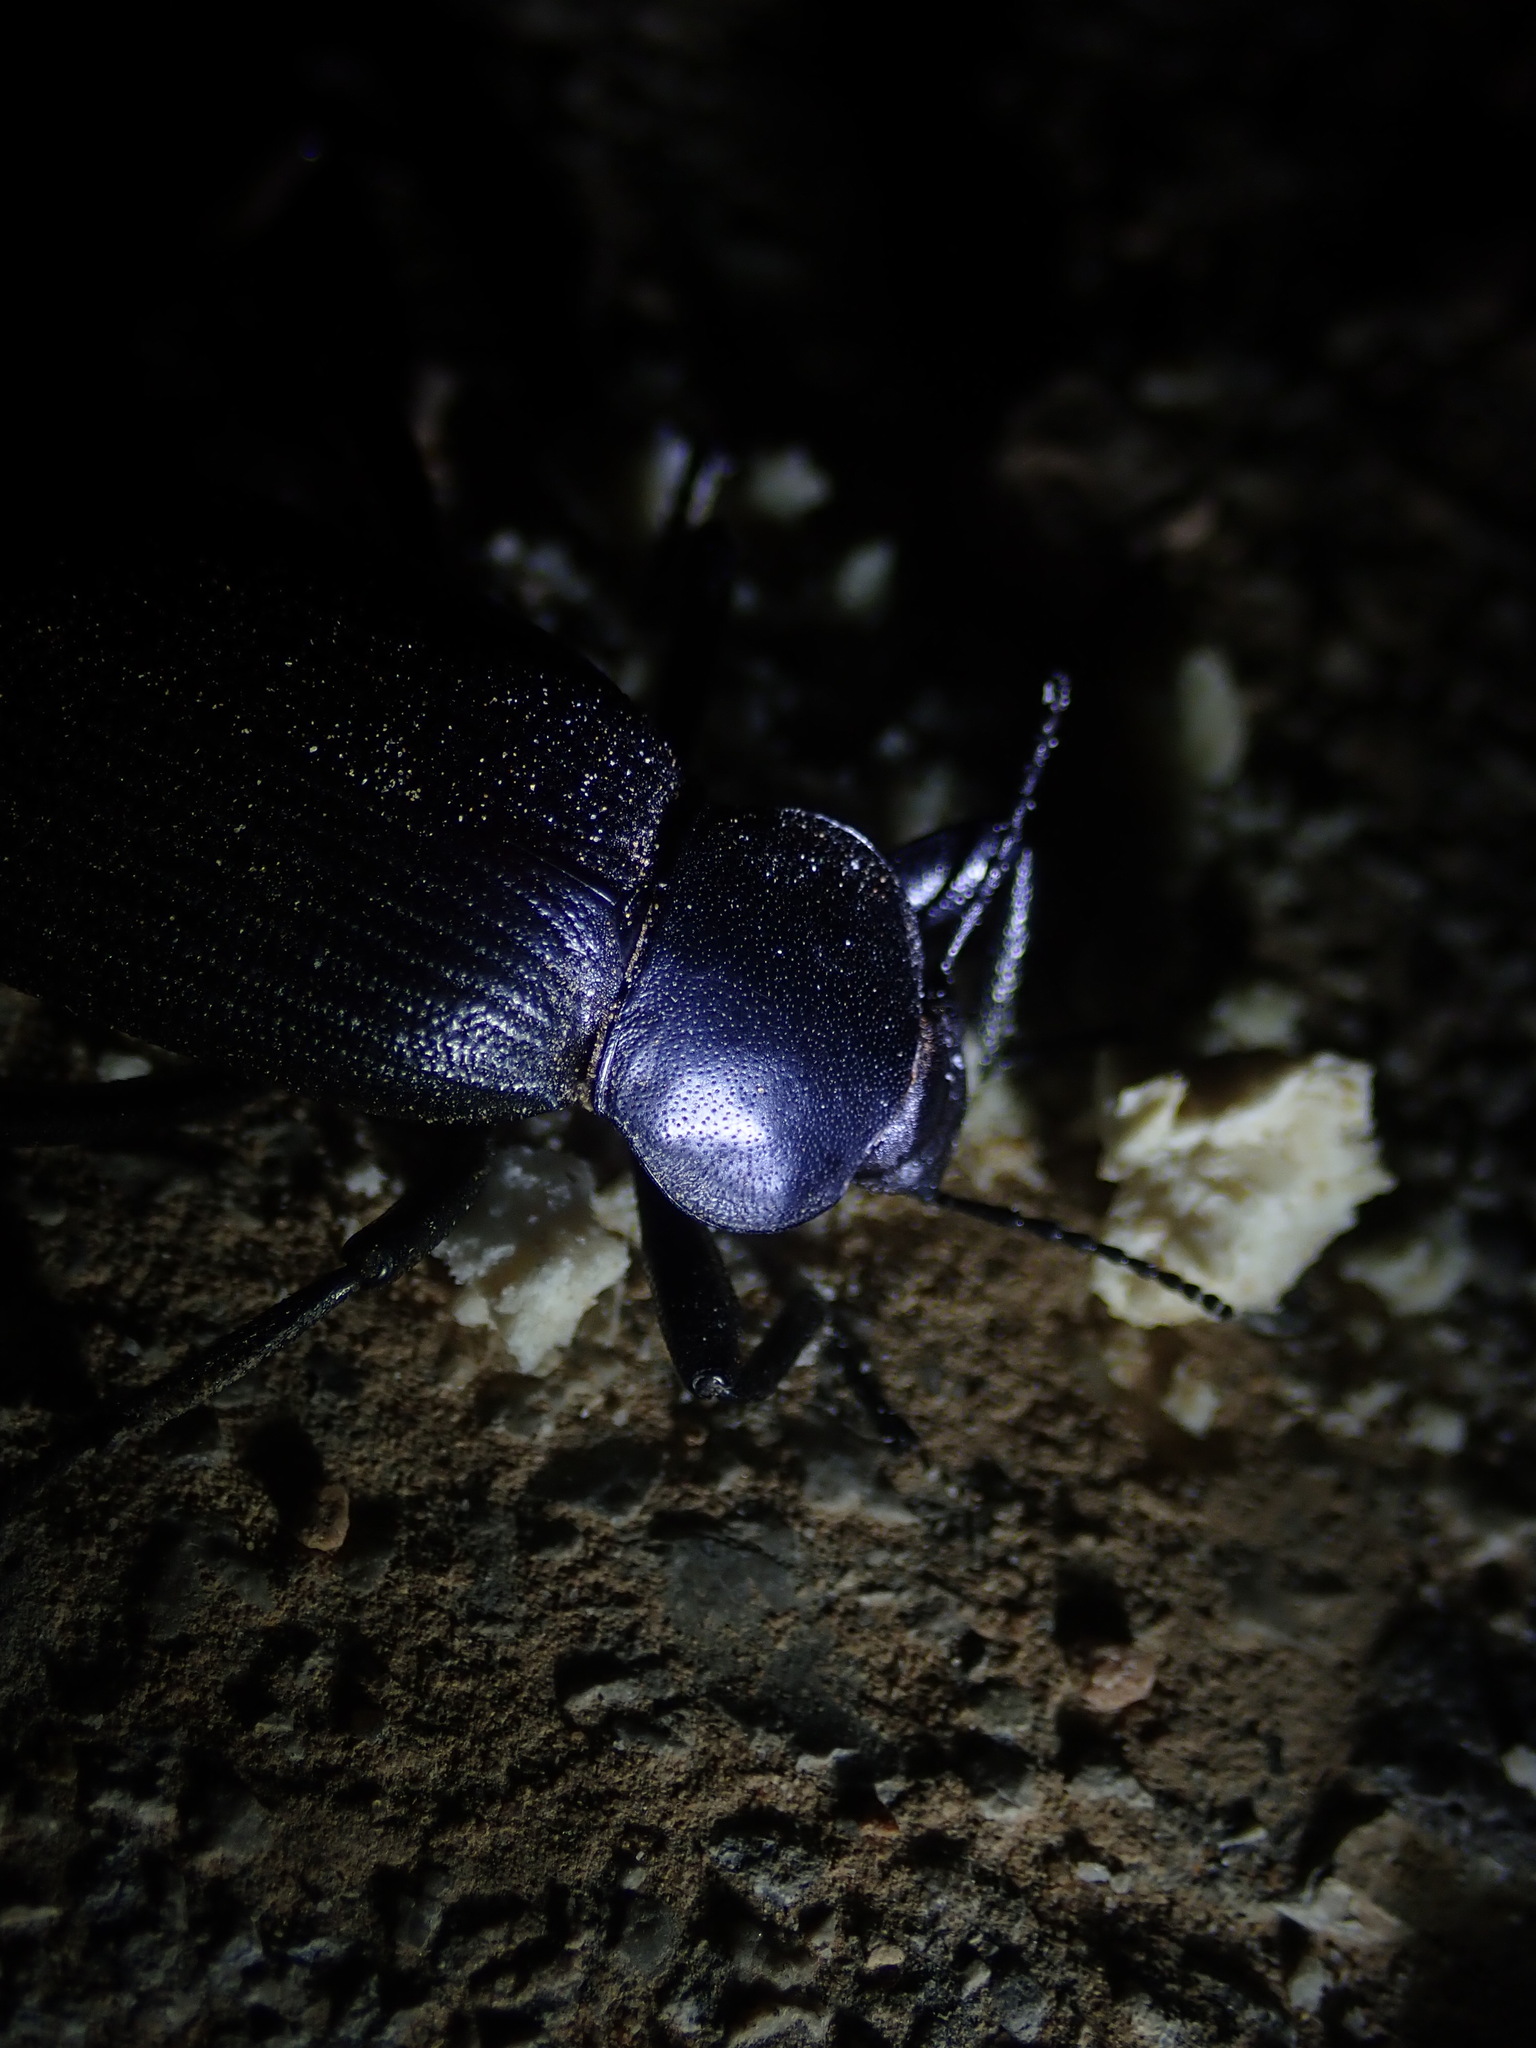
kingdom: Animalia
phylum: Arthropoda
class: Insecta
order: Coleoptera
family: Tenebrionidae
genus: Eleodes
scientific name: Eleodes obscura
